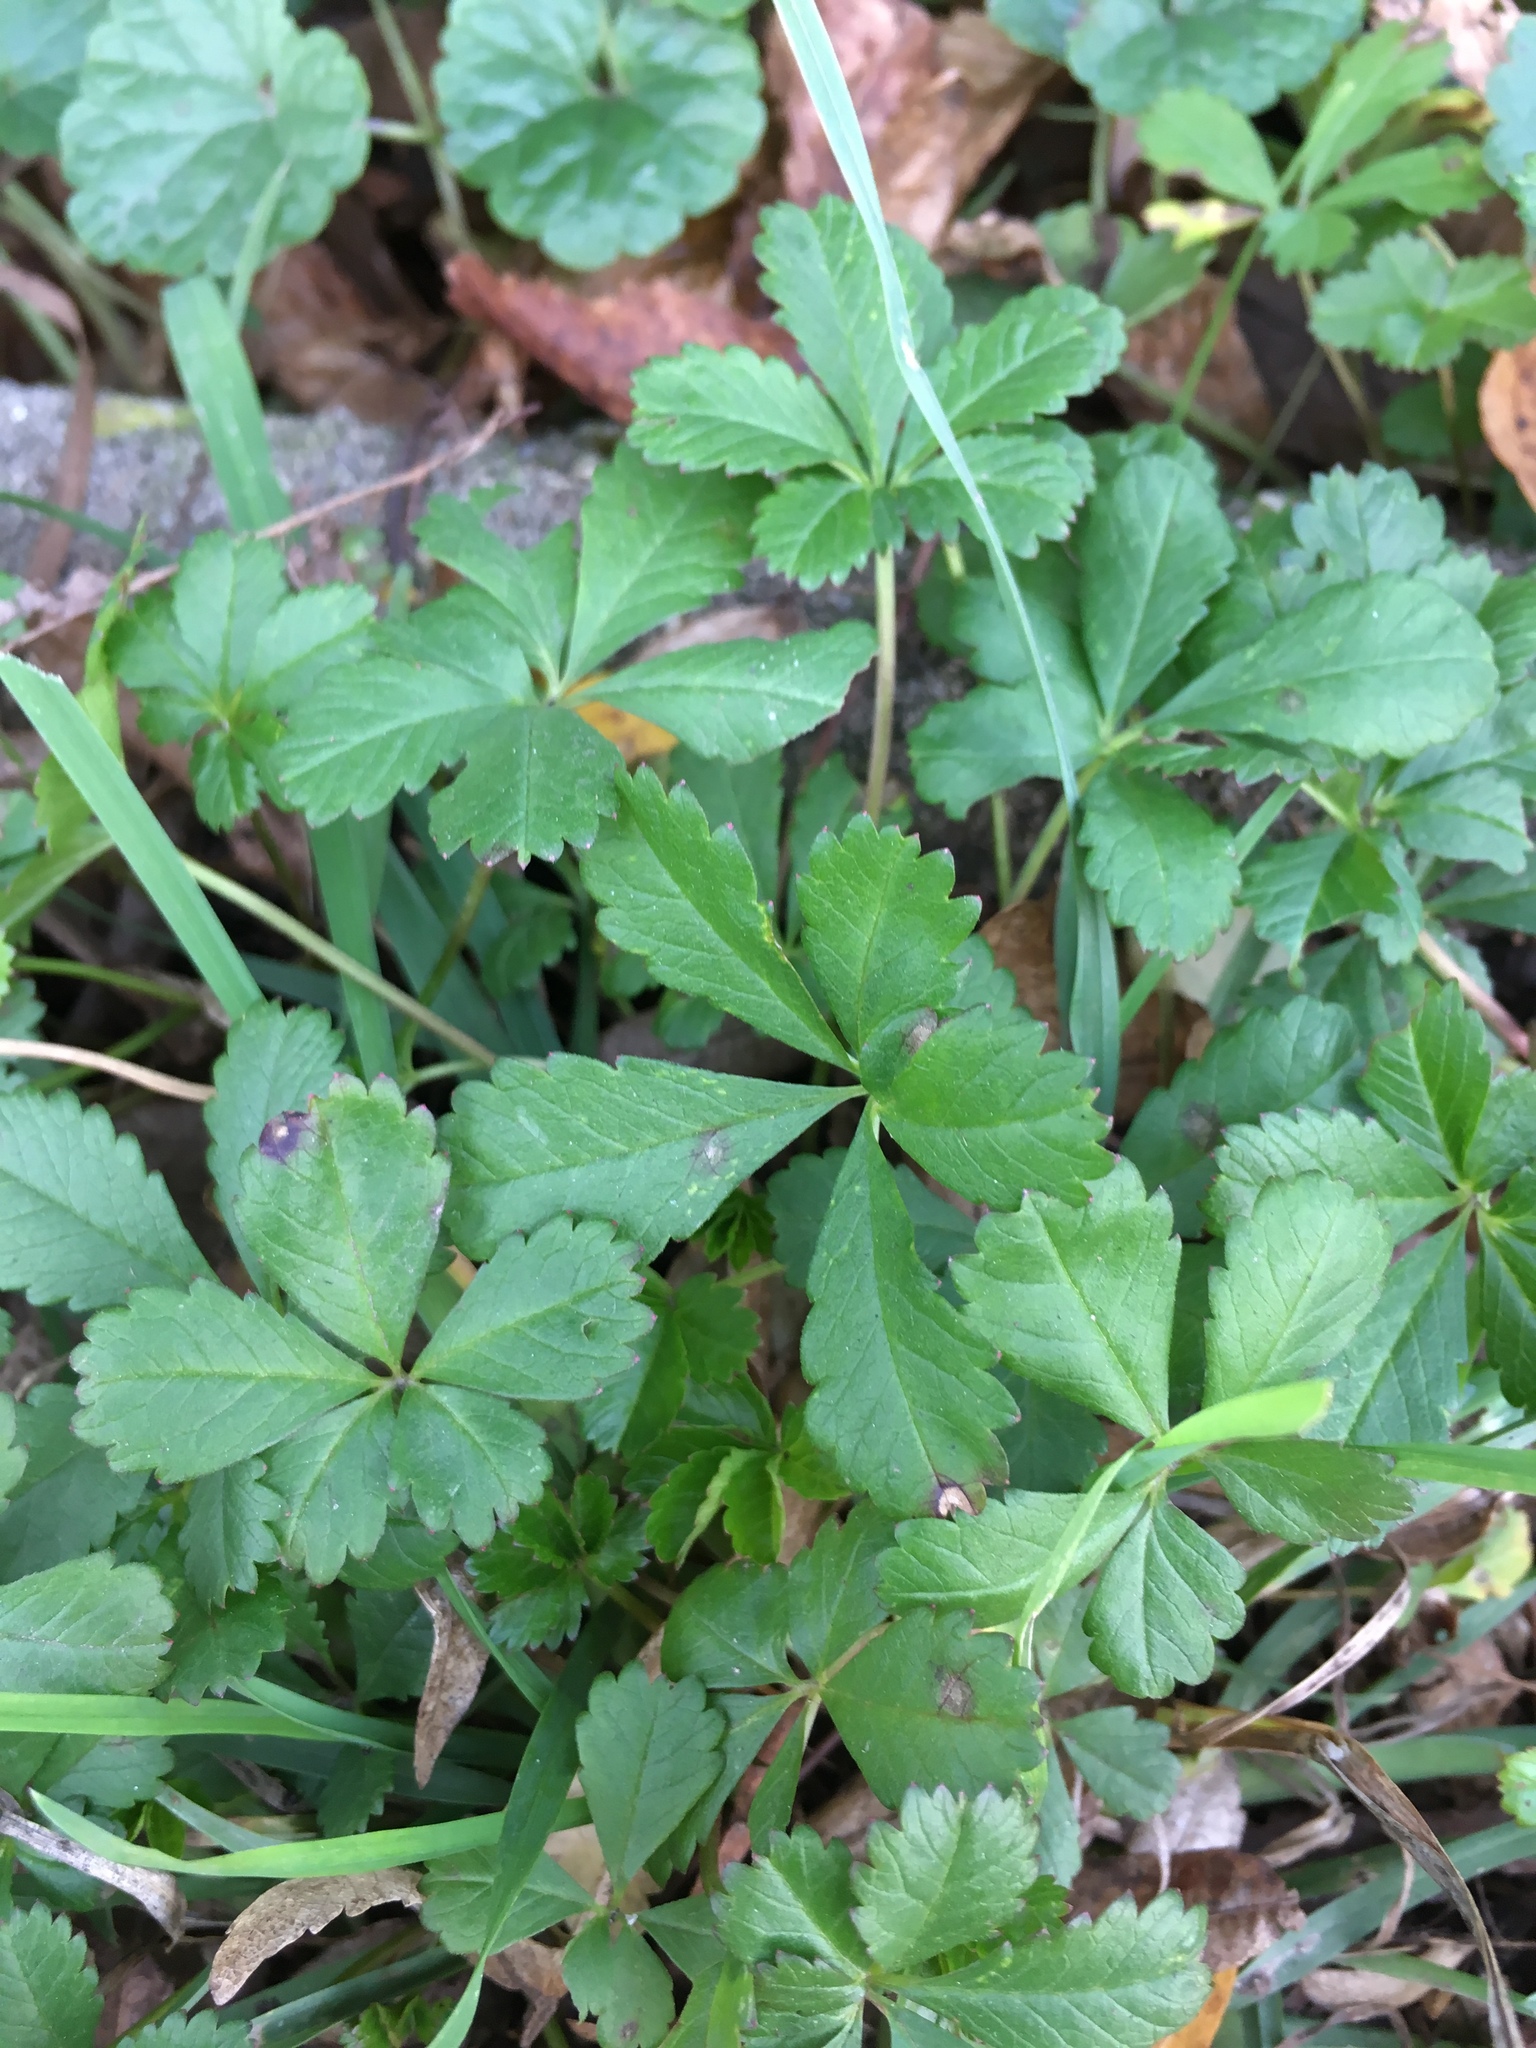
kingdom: Plantae
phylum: Tracheophyta
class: Magnoliopsida
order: Rosales
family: Rosaceae
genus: Potentilla
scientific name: Potentilla reptans
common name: Creeping cinquefoil
